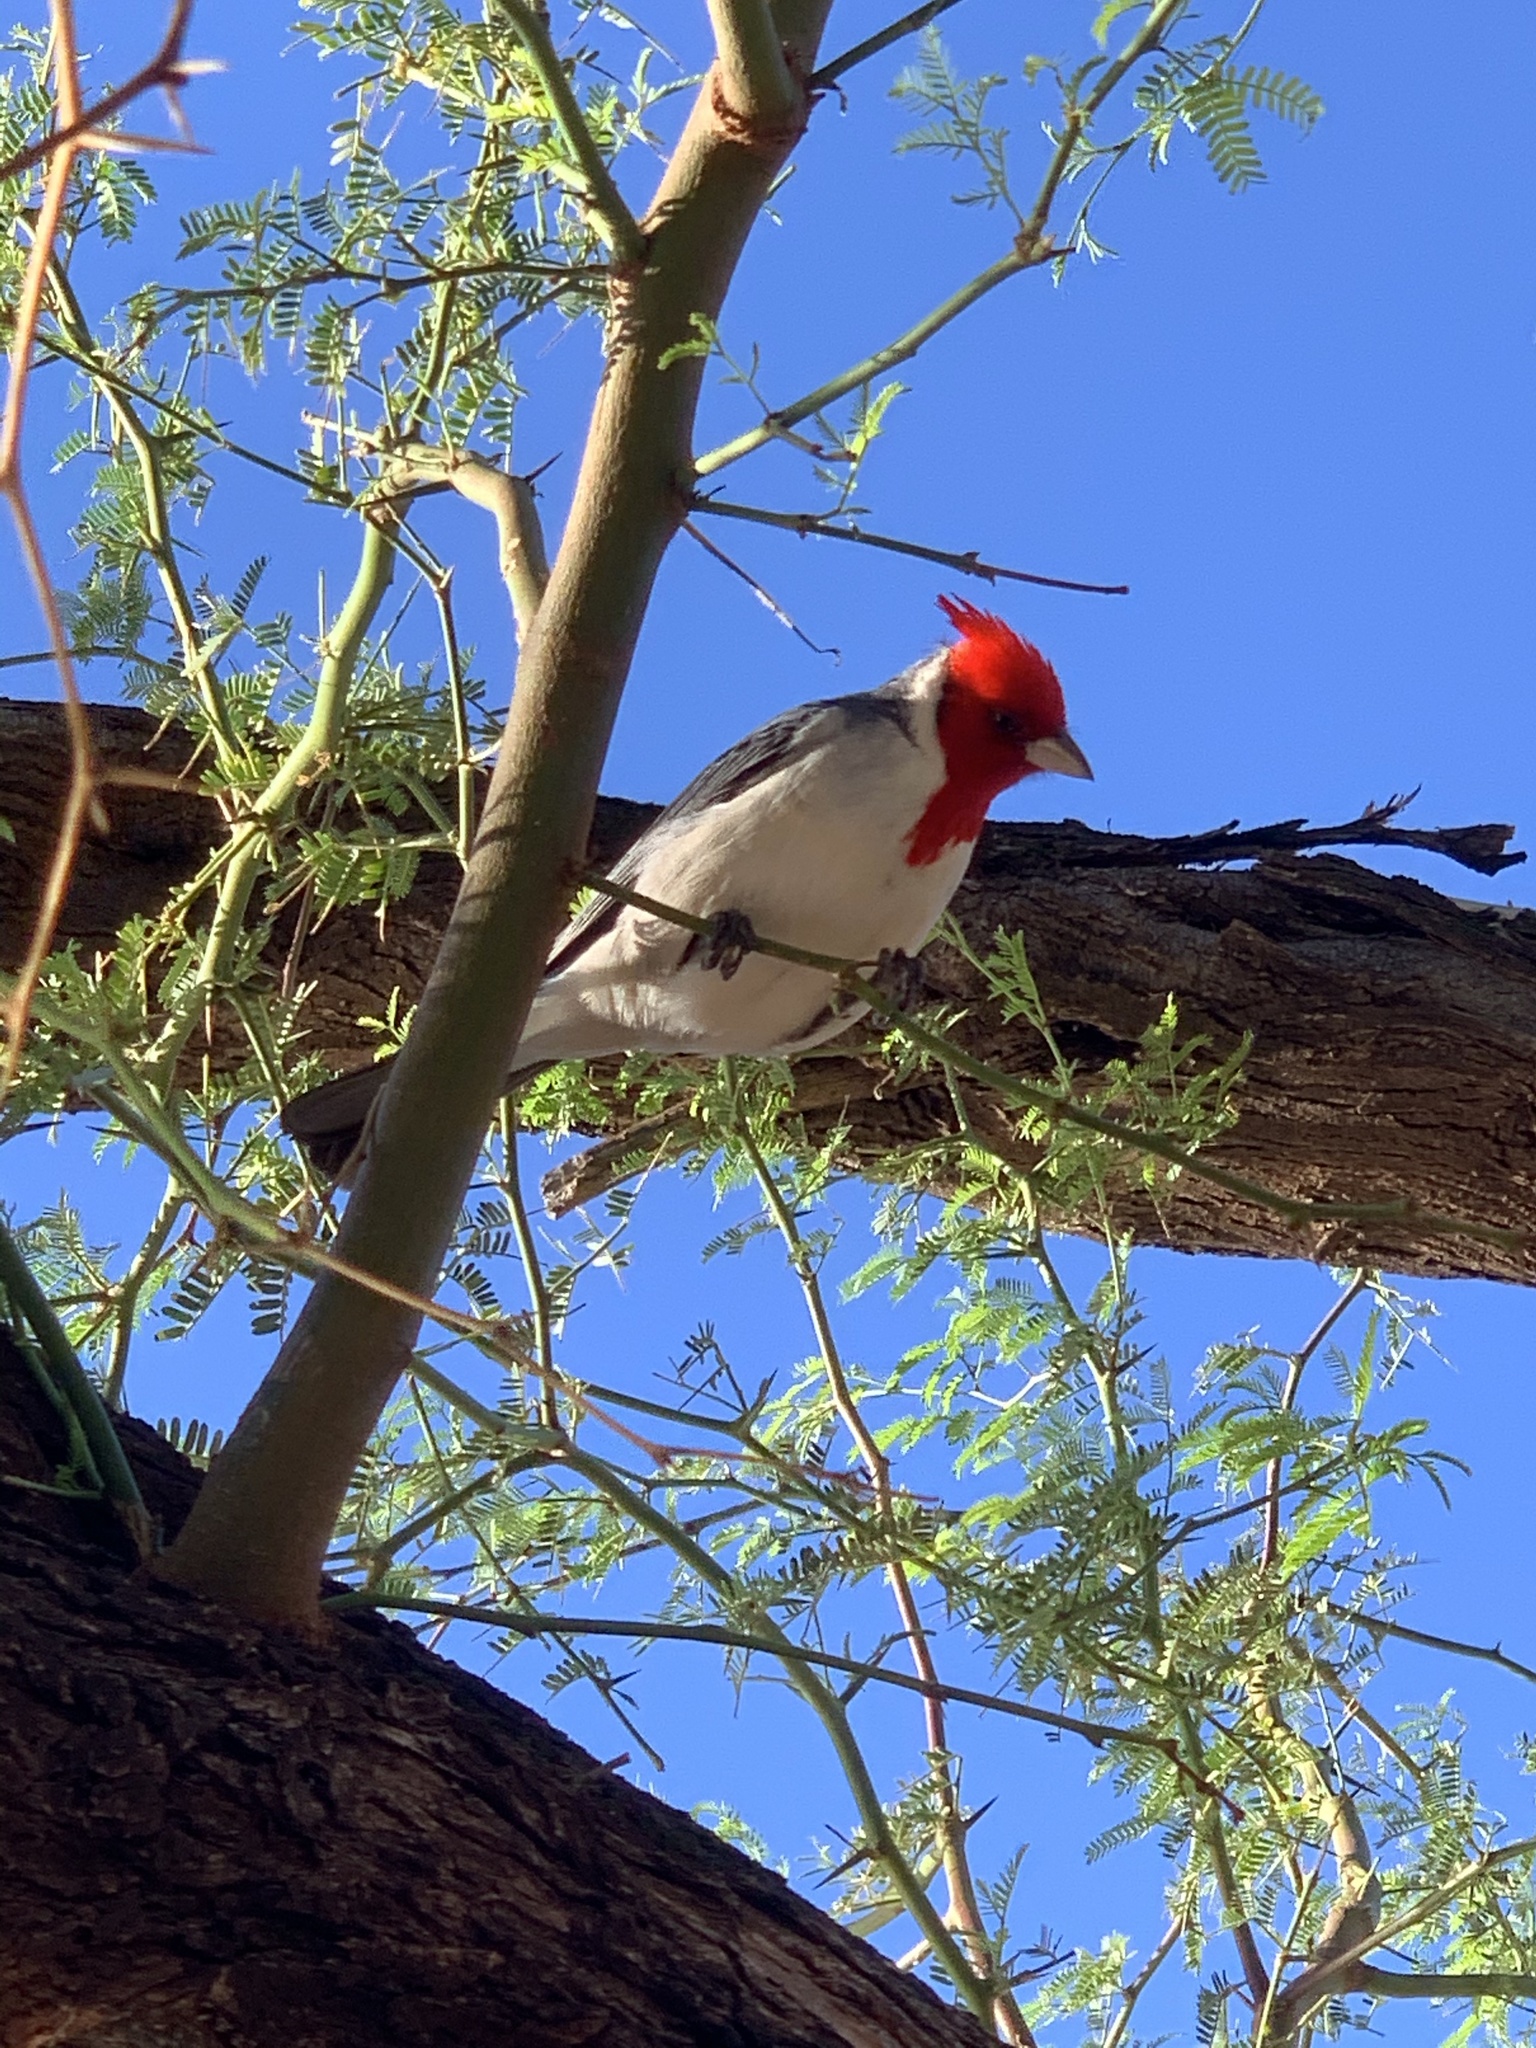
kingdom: Animalia
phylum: Chordata
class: Aves
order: Passeriformes
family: Thraupidae
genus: Paroaria
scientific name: Paroaria coronata
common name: Red-crested cardinal
